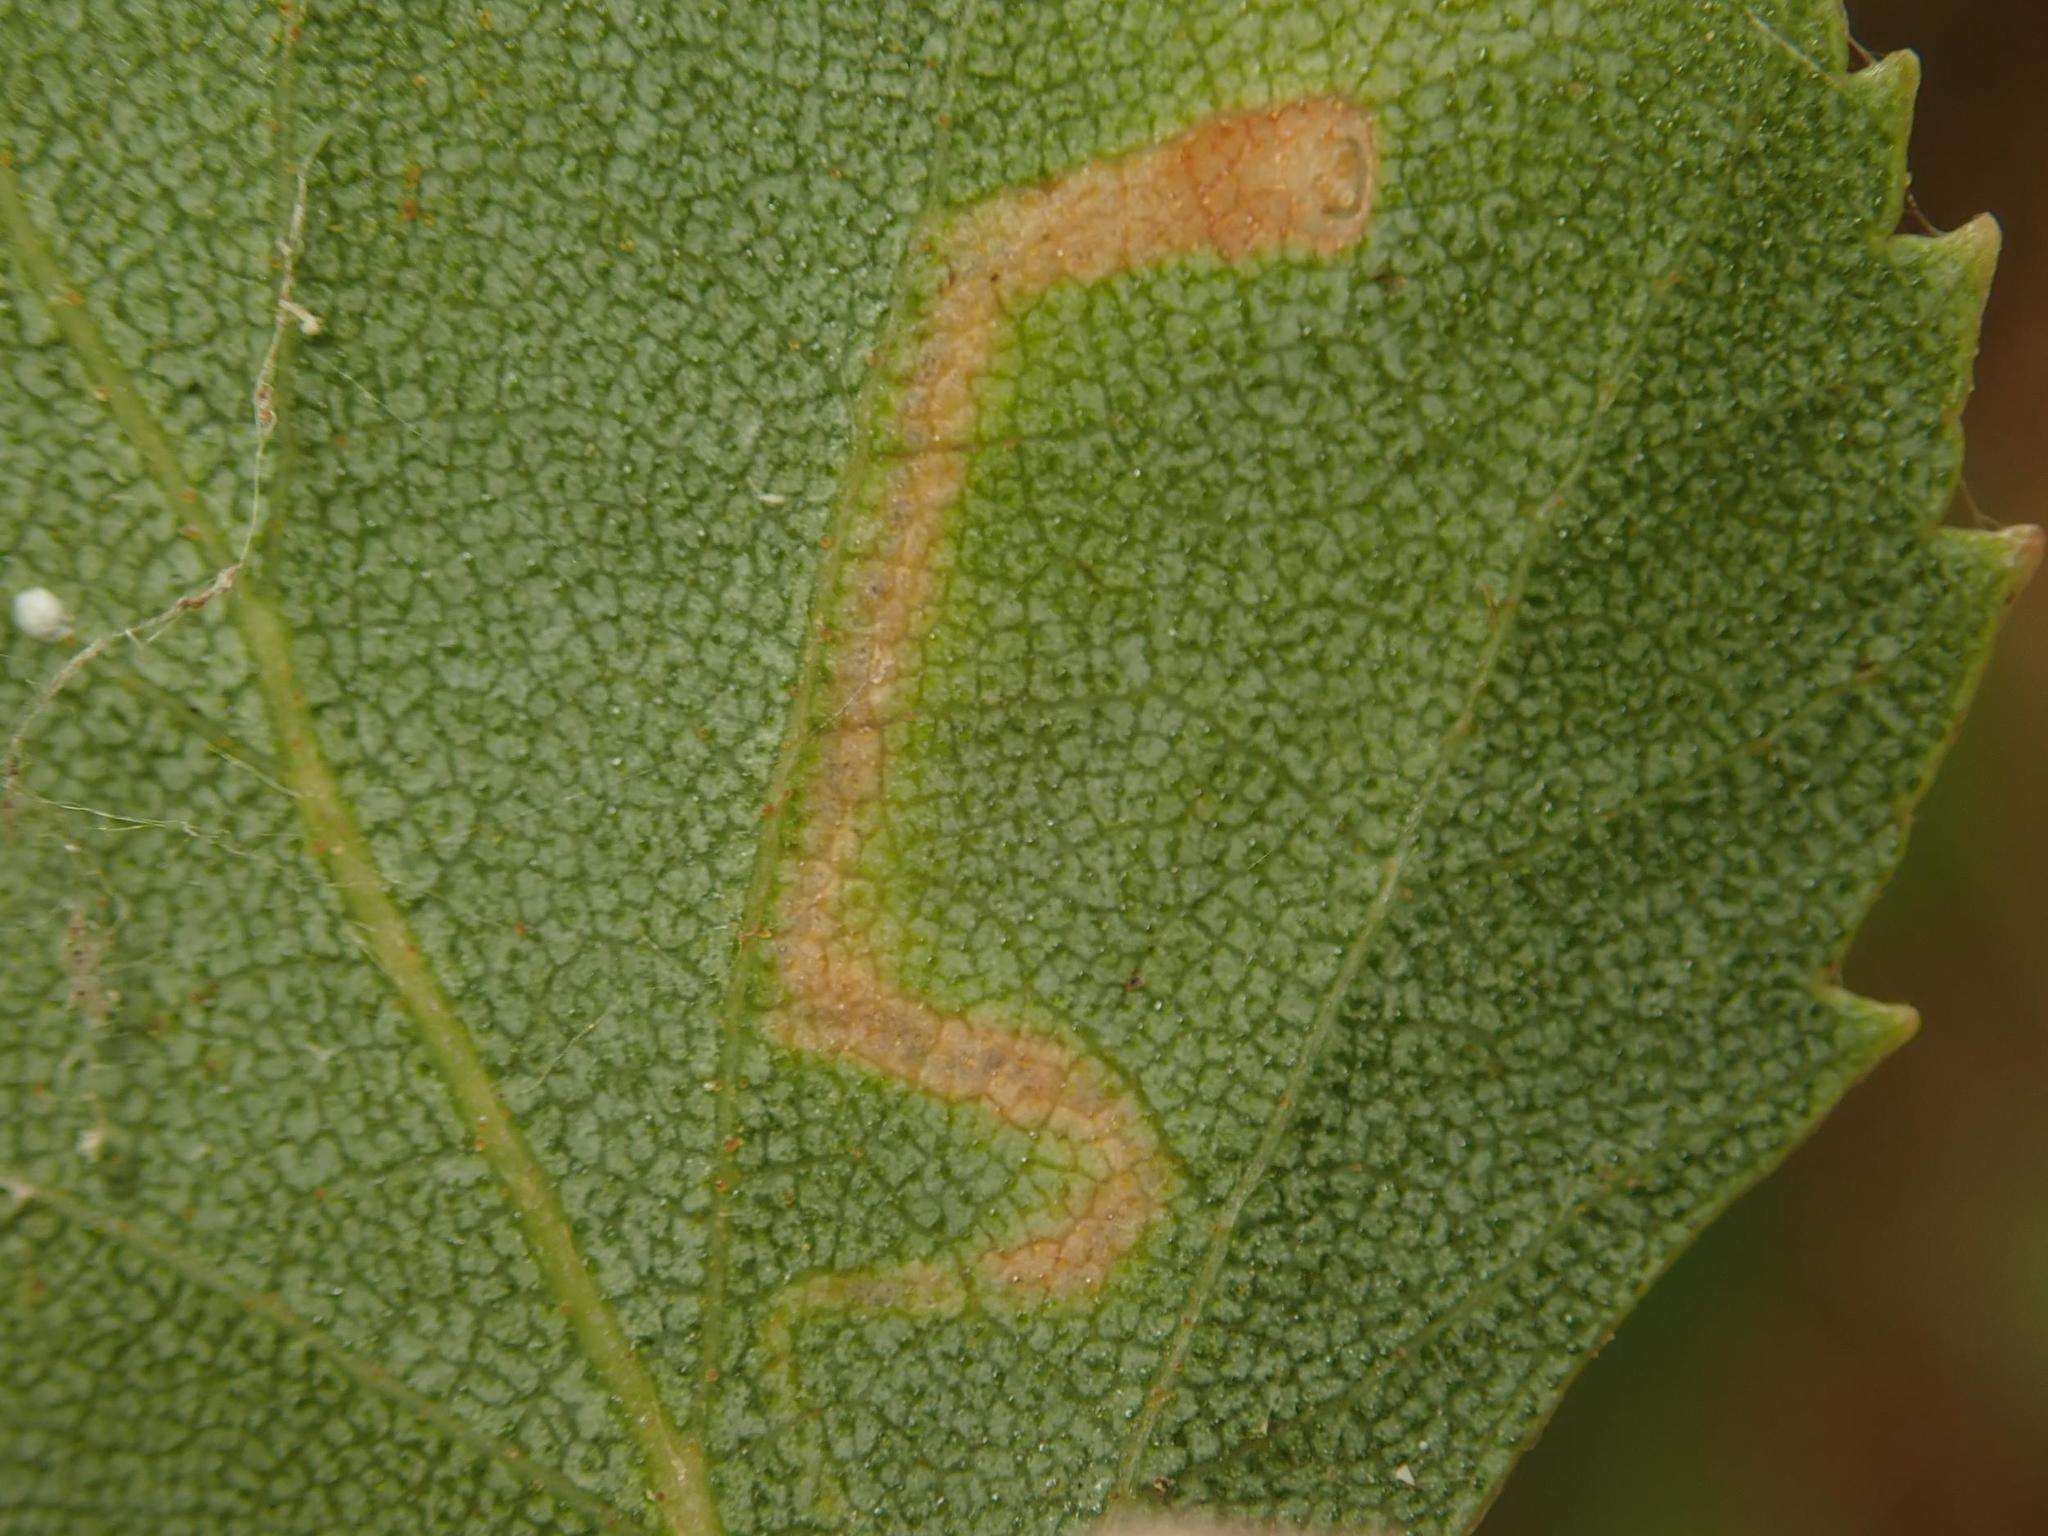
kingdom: Animalia
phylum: Arthropoda
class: Insecta
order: Lepidoptera
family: Nepticulidae
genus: Stigmella
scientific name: Stigmella betulicola
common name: Common birch pigmy
